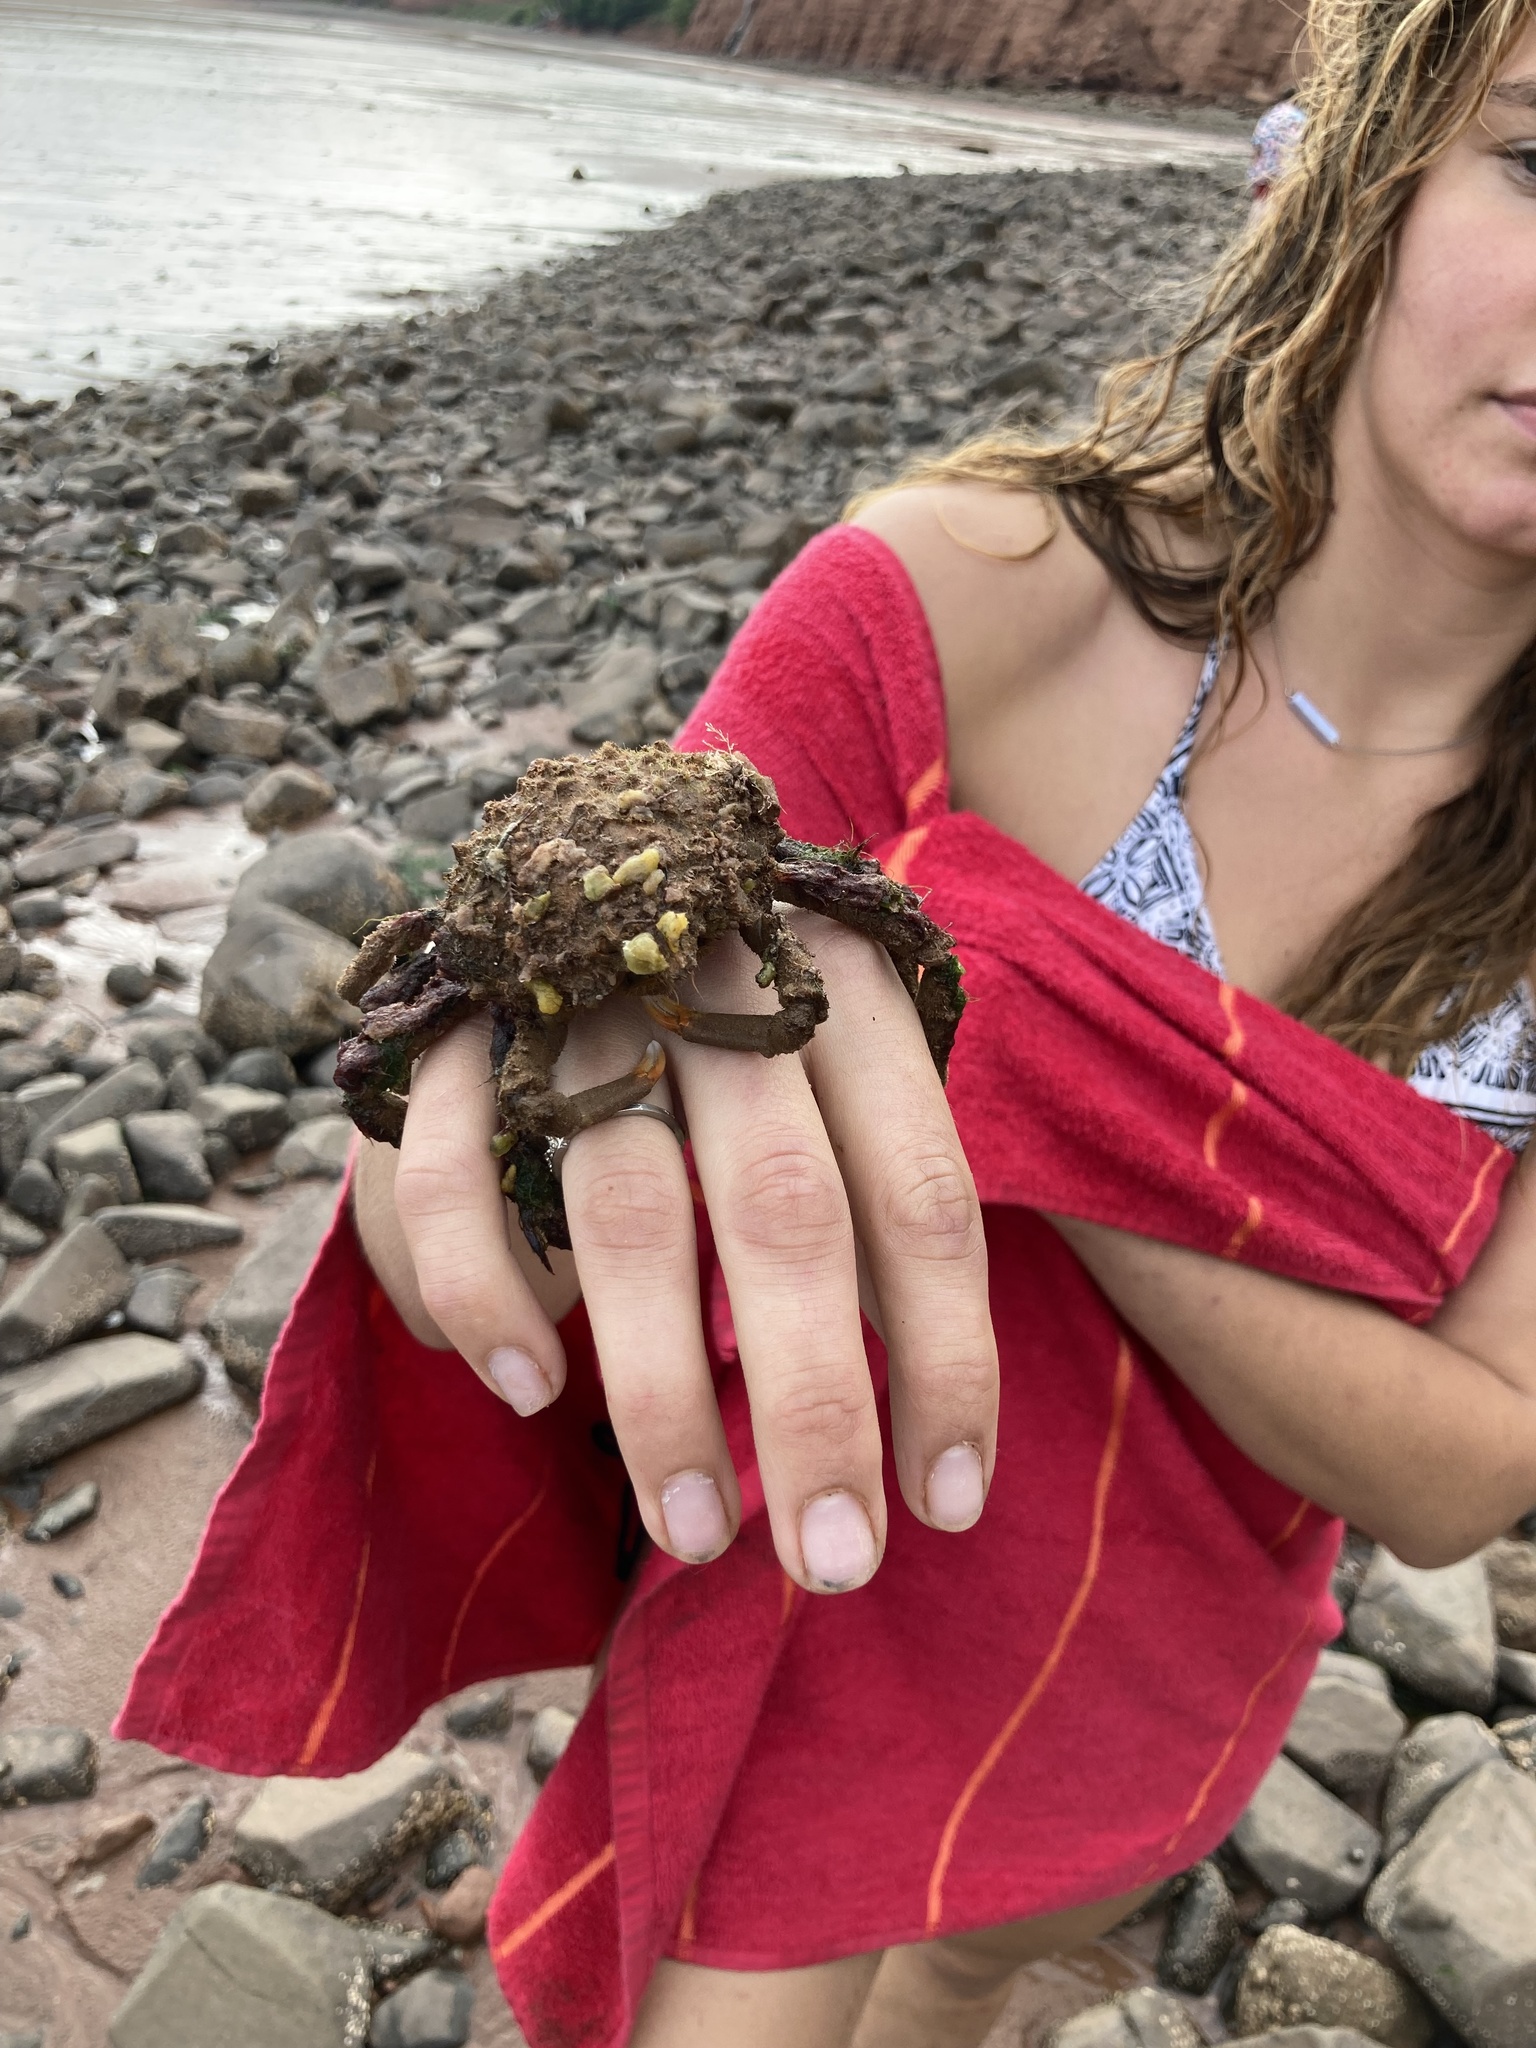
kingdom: Animalia
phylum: Arthropoda
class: Malacostraca
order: Decapoda
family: Epialtidae
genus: Libinia
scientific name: Libinia emarginata
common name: Common spider crab
